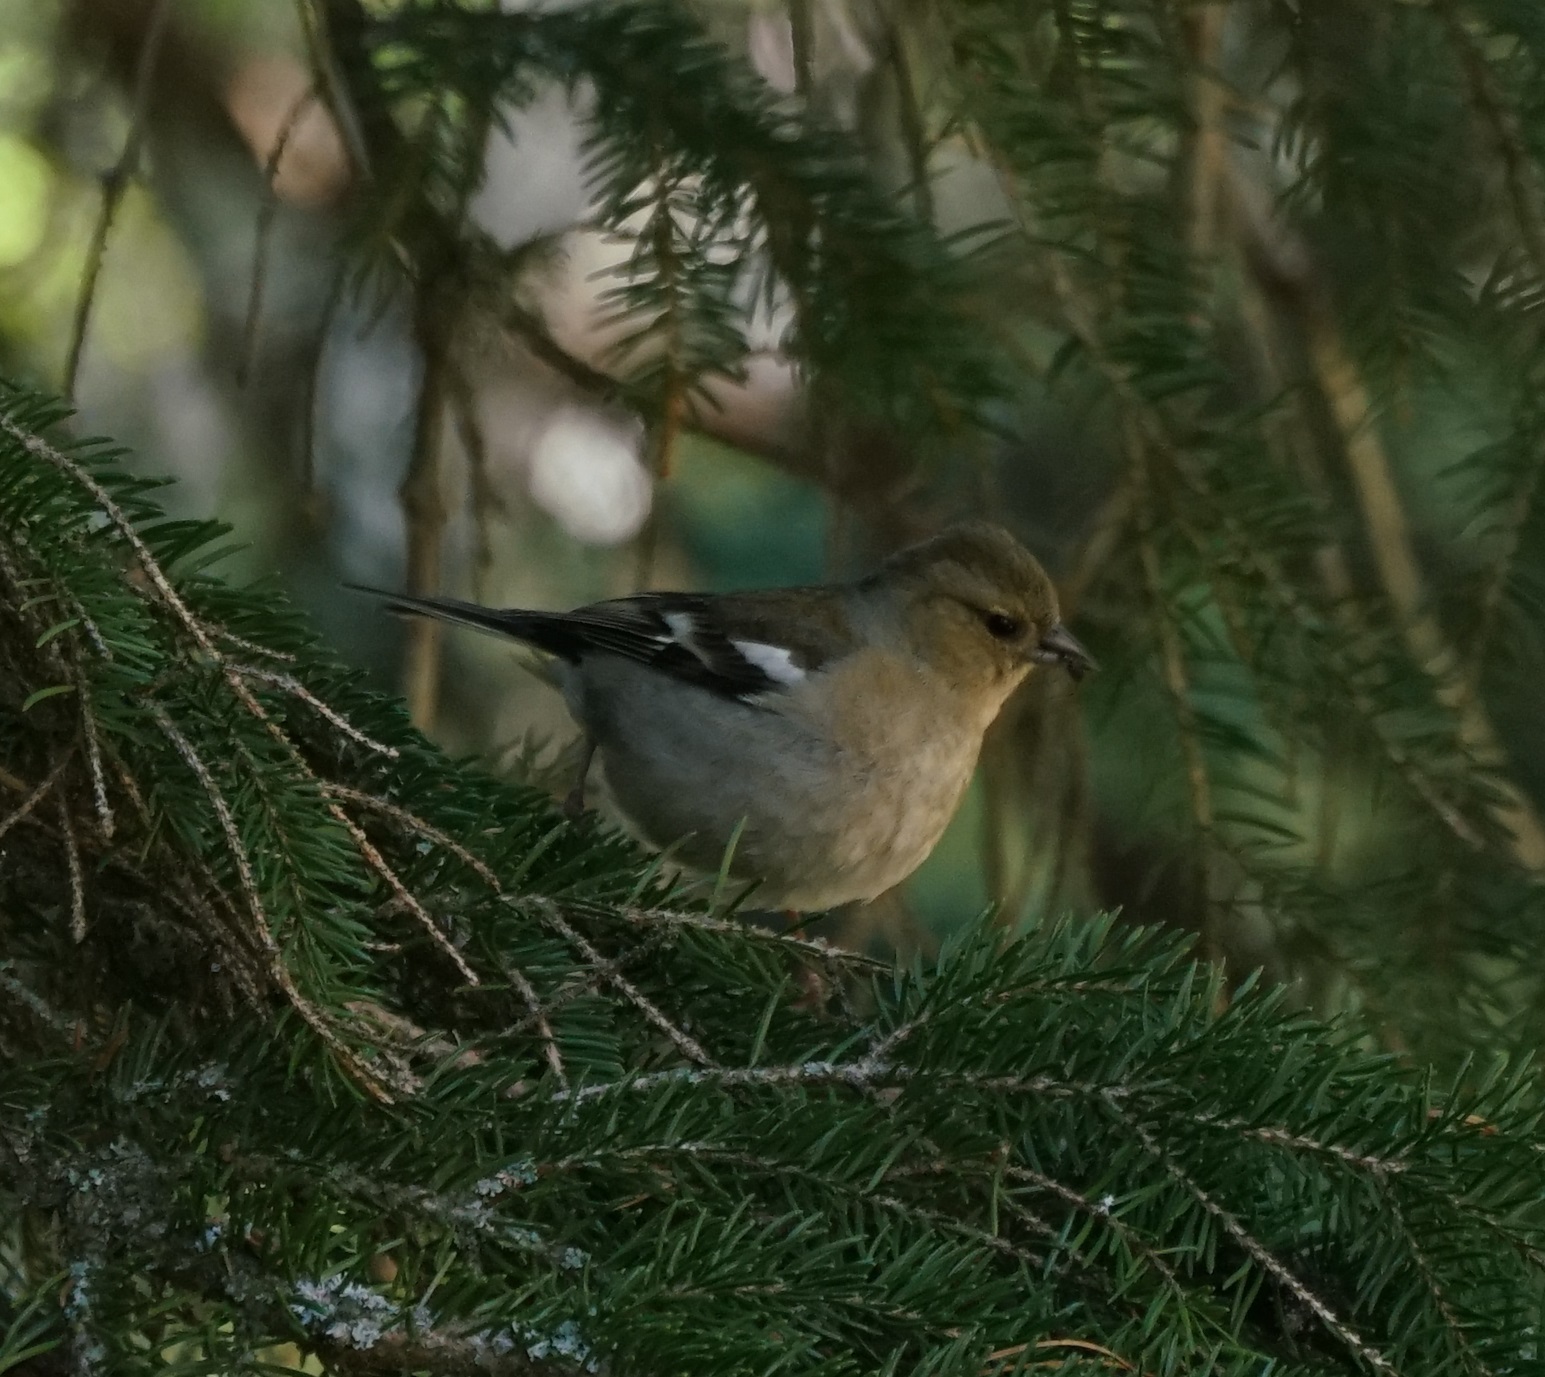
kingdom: Animalia
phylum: Chordata
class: Aves
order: Passeriformes
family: Fringillidae
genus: Fringilla
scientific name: Fringilla coelebs
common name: Common chaffinch
